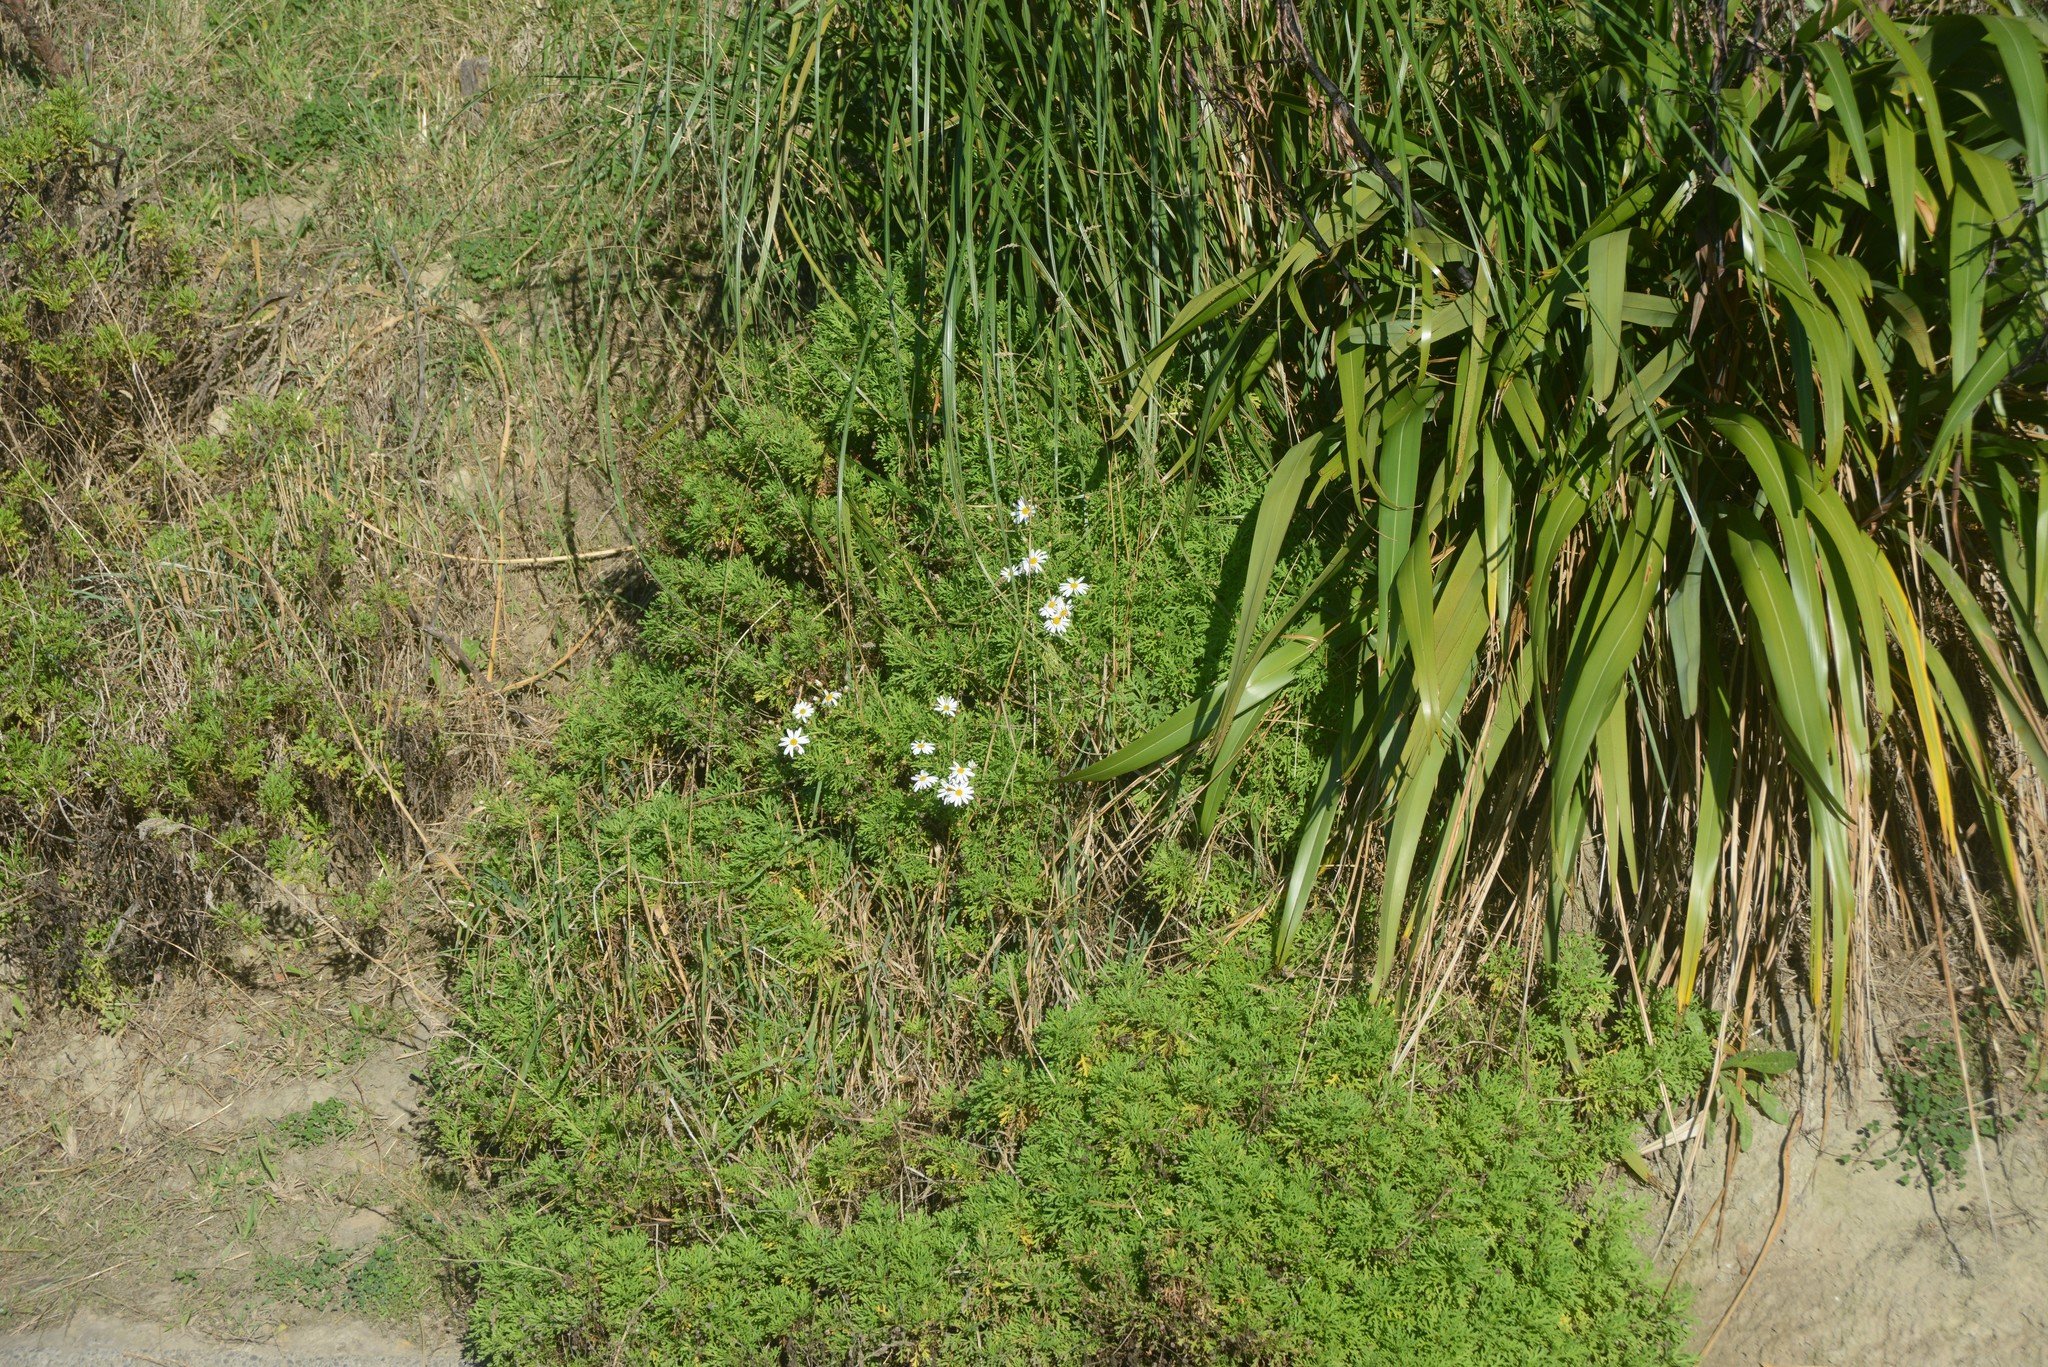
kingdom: Plantae
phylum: Tracheophyta
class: Magnoliopsida
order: Asterales
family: Asteraceae
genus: Leucanthemum
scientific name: Leucanthemum maximum
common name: Max chrysanthemum
